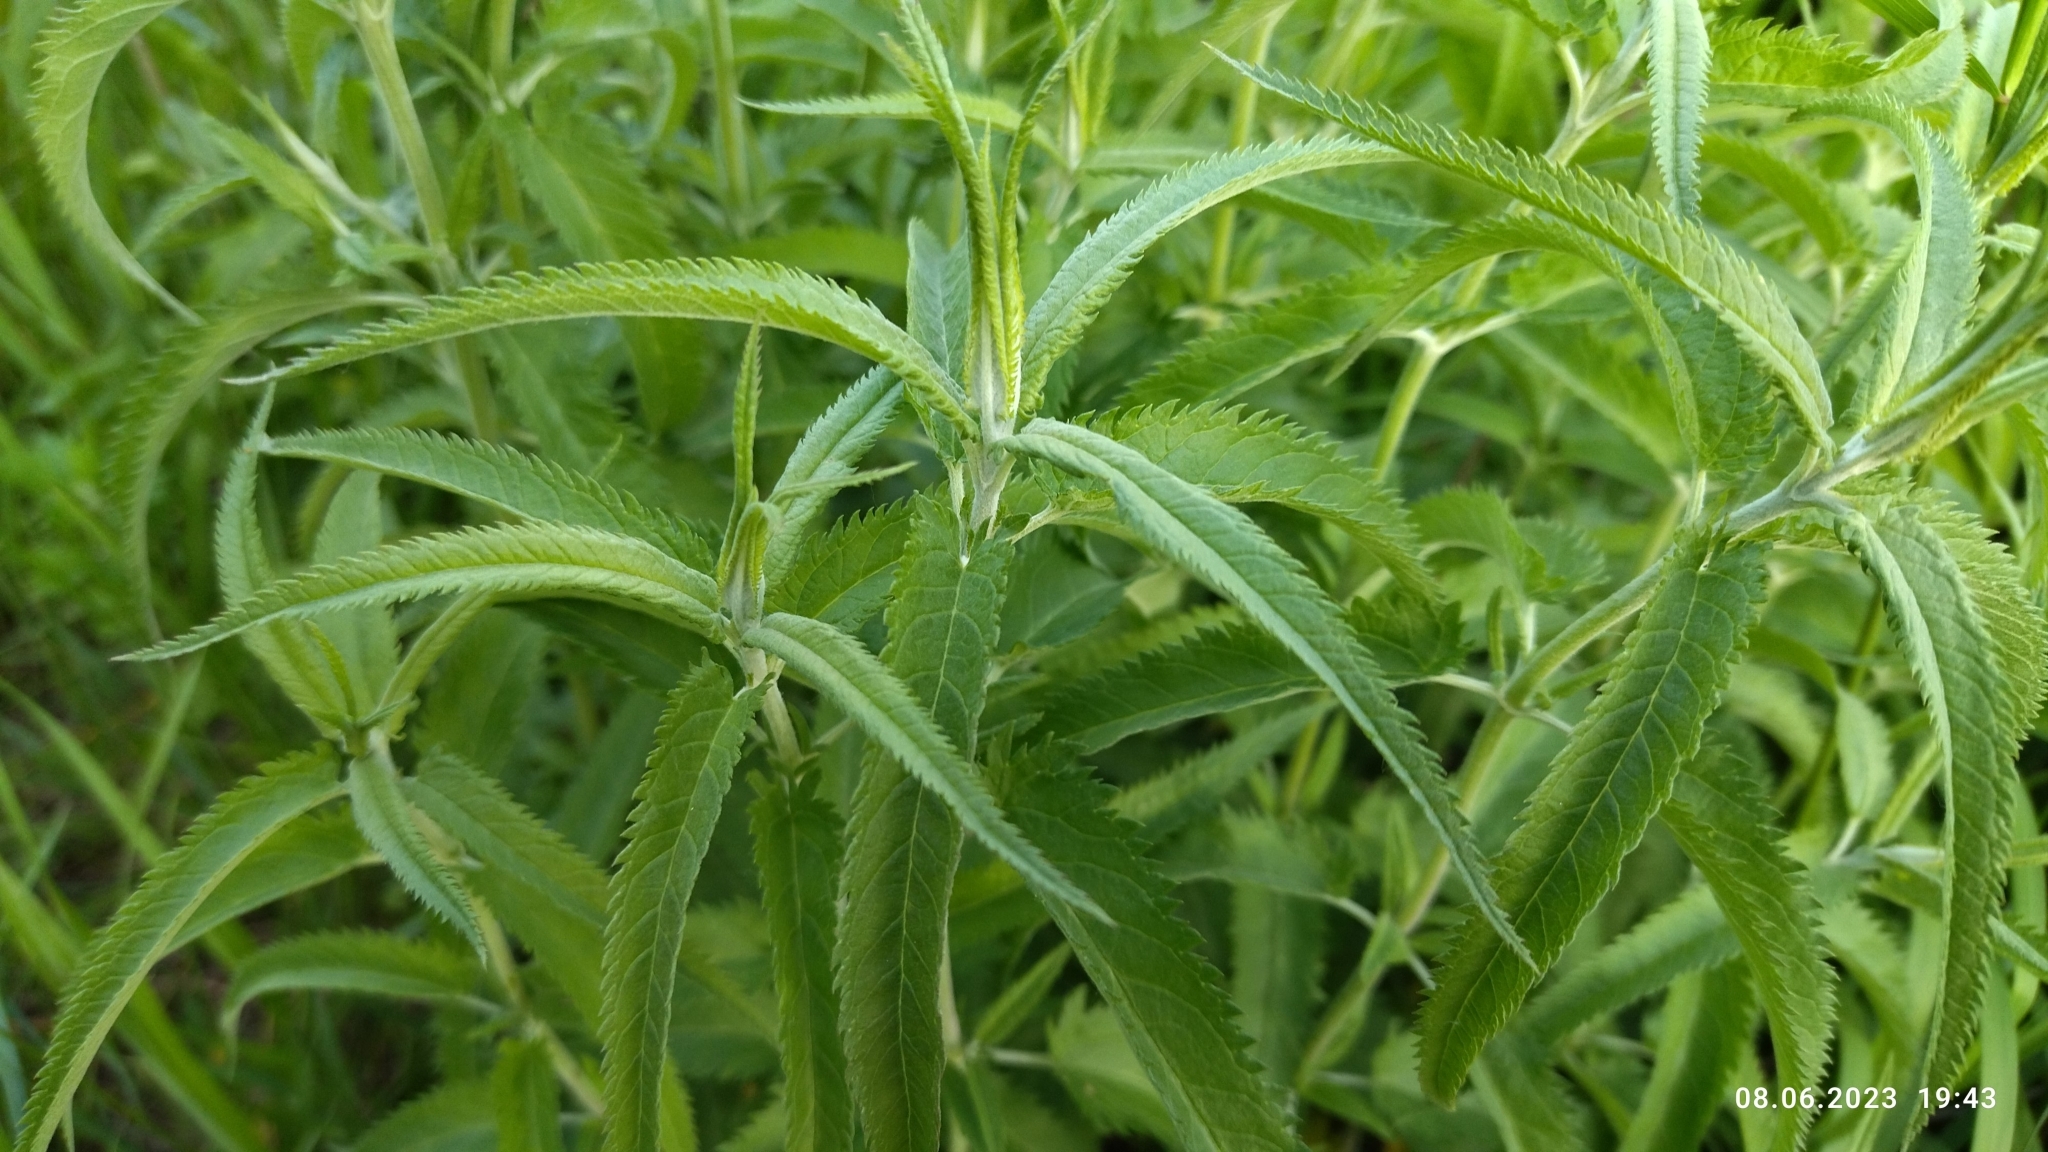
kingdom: Plantae
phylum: Tracheophyta
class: Magnoliopsida
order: Lamiales
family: Plantaginaceae
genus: Veronica
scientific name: Veronica longifolia
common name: Garden speedwell
